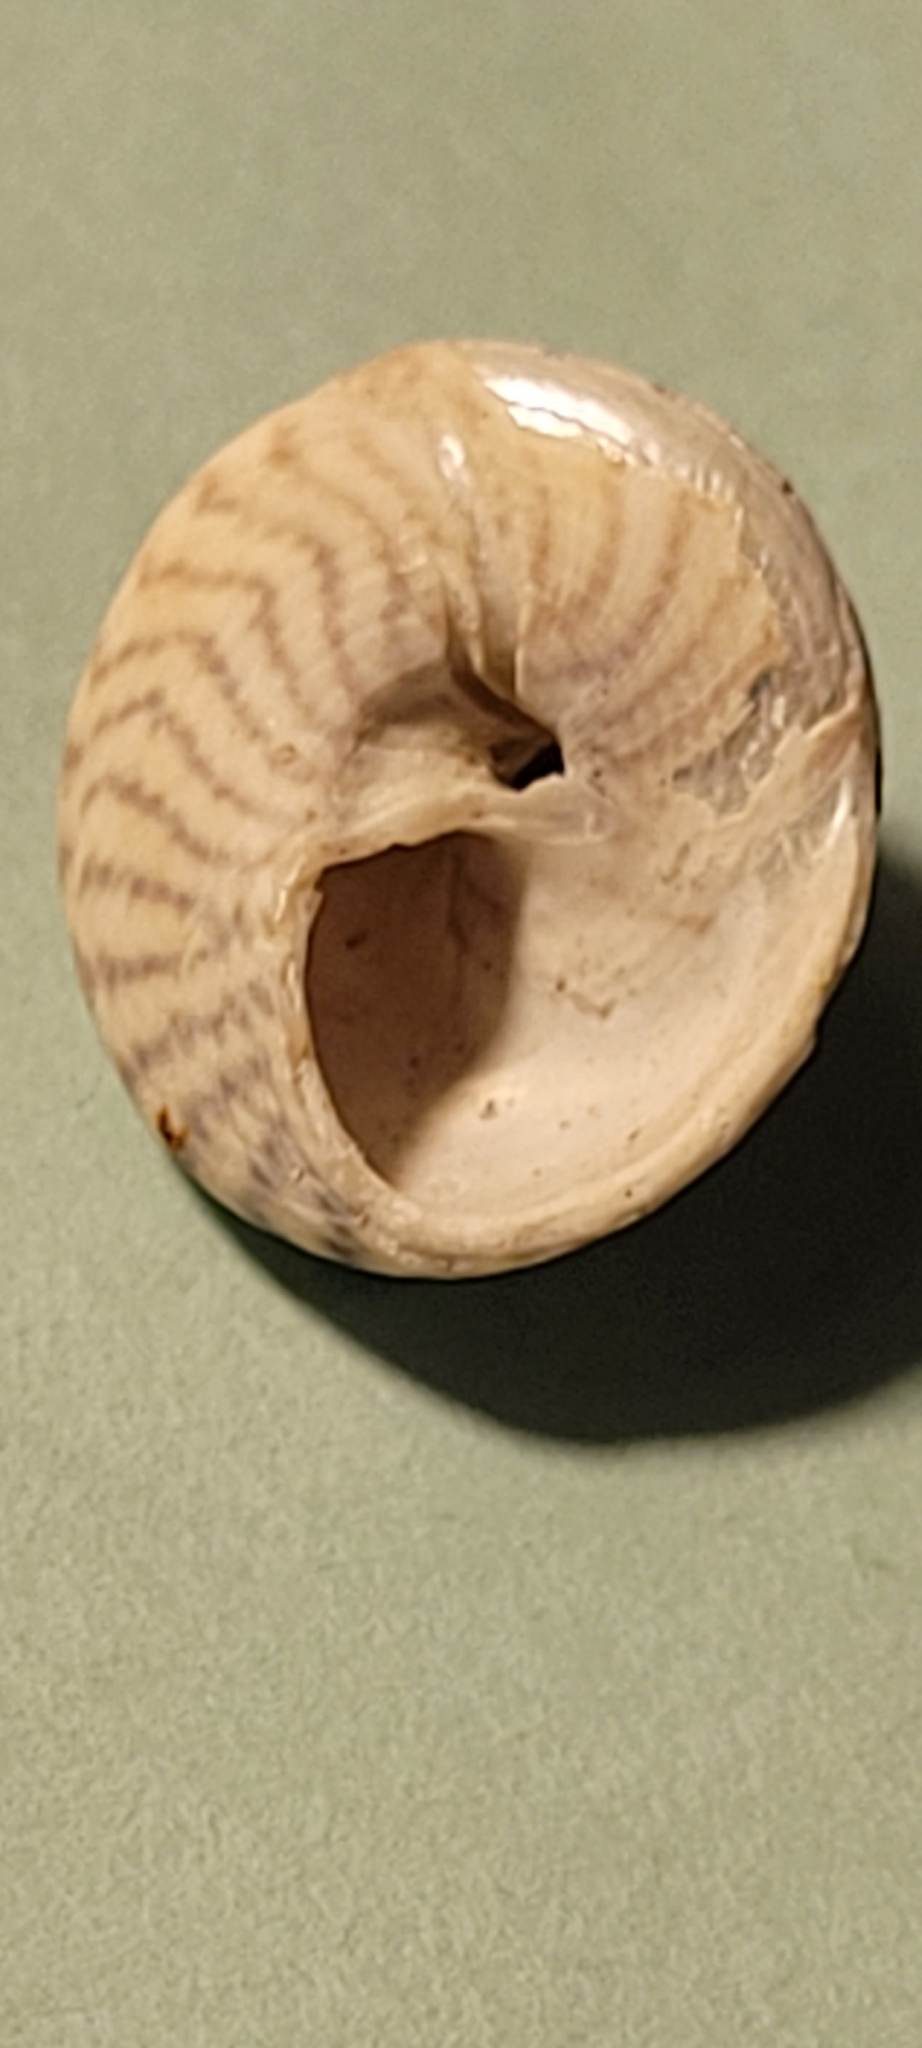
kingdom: Animalia
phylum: Mollusca
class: Gastropoda
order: Trochida
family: Trochidae
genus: Steromphala
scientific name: Steromphala cineraria
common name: Grey top shell
